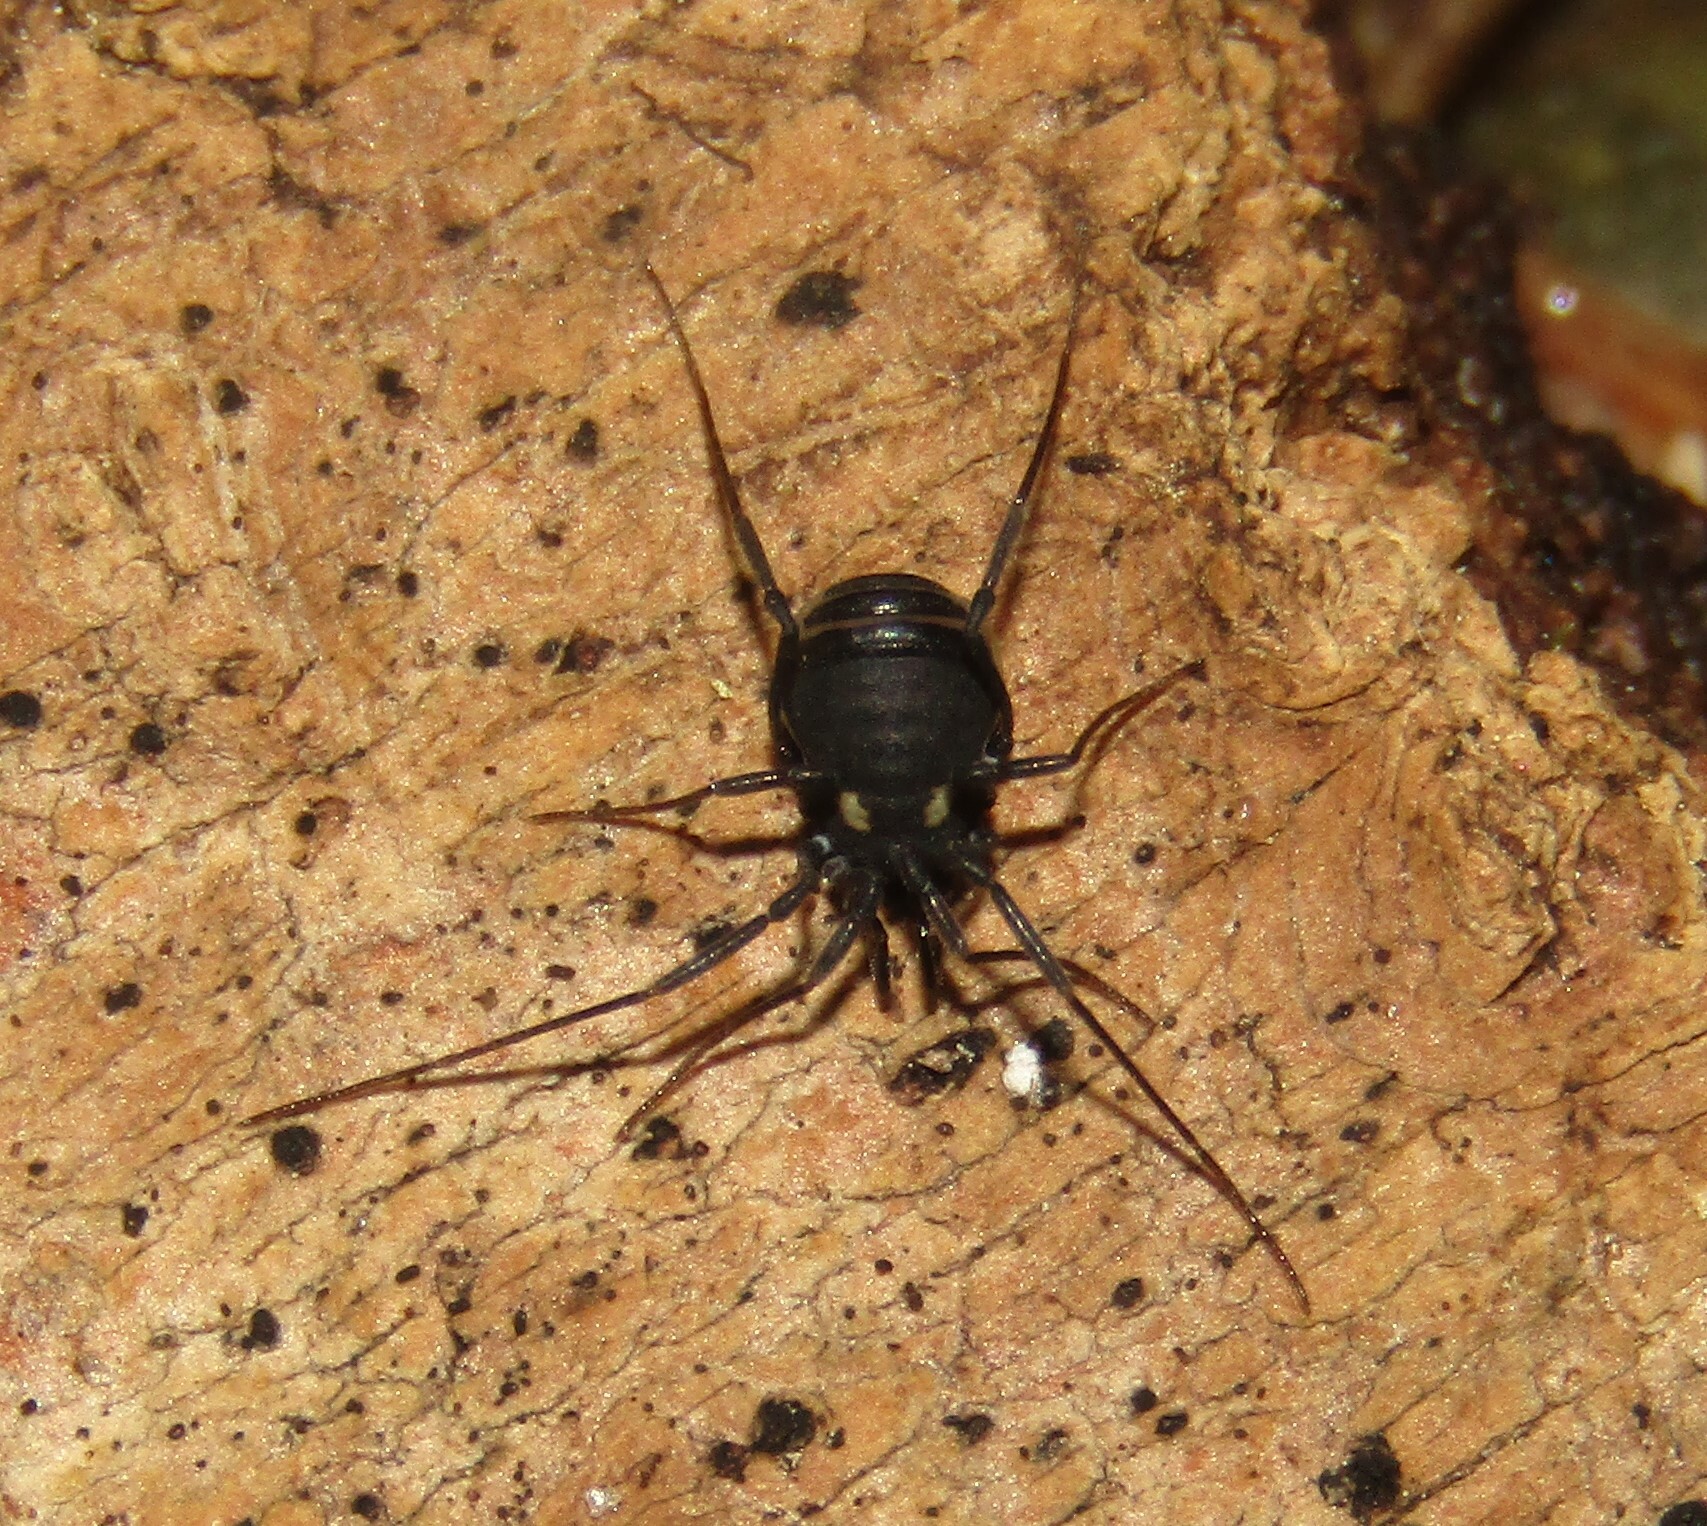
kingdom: Animalia
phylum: Arthropoda
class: Arachnida
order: Opiliones
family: Nemastomatidae
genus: Nemastoma
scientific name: Nemastoma lugubre
